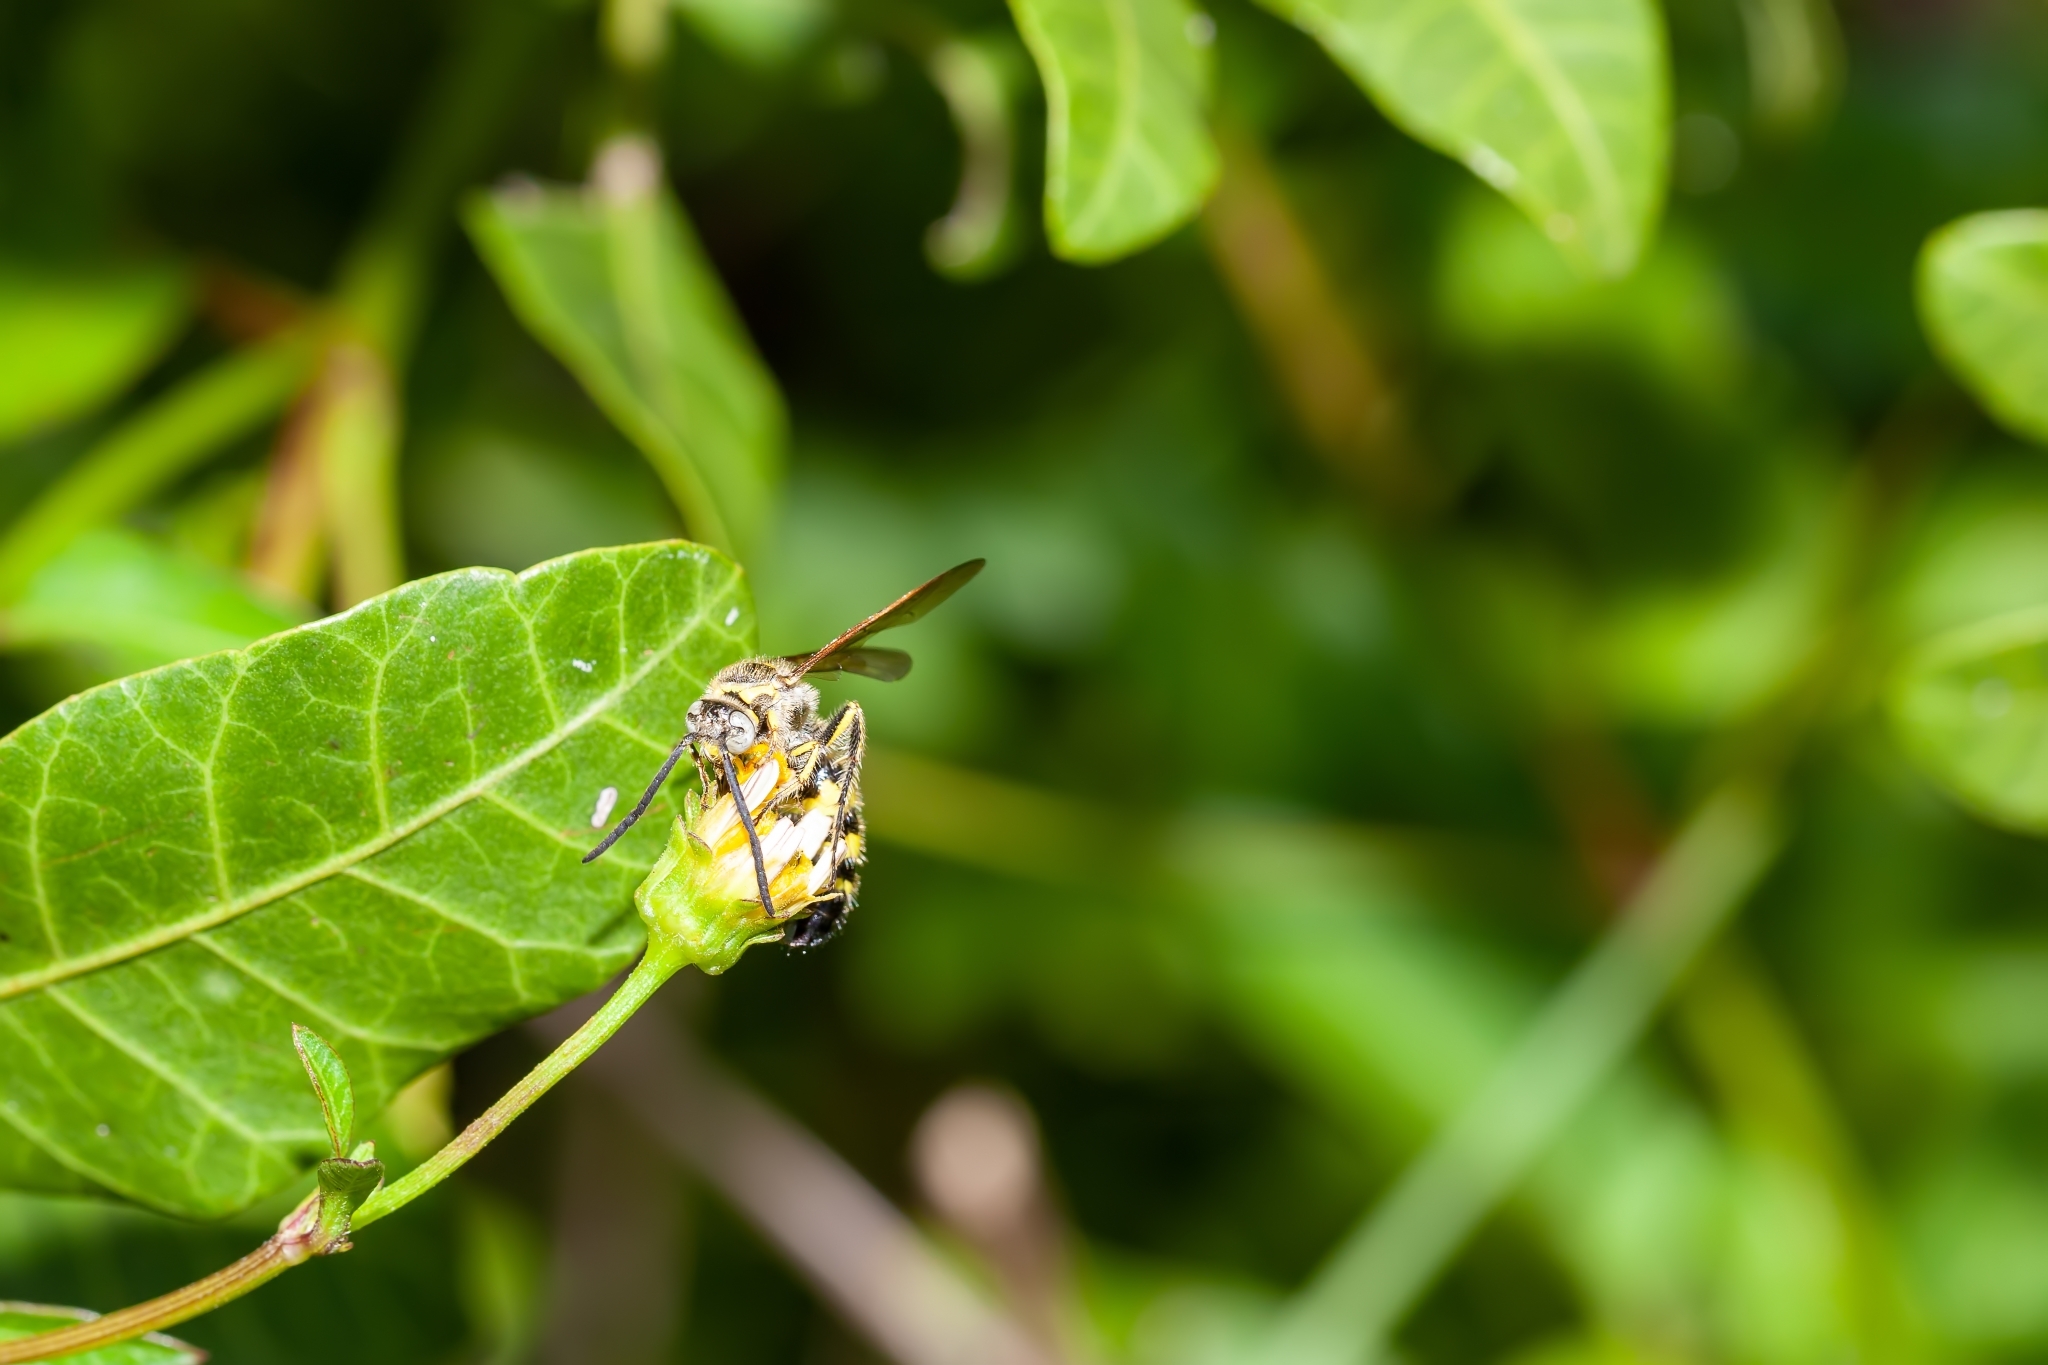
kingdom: Animalia
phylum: Arthropoda
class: Insecta
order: Hymenoptera
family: Scoliidae
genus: Dielis
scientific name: Dielis
